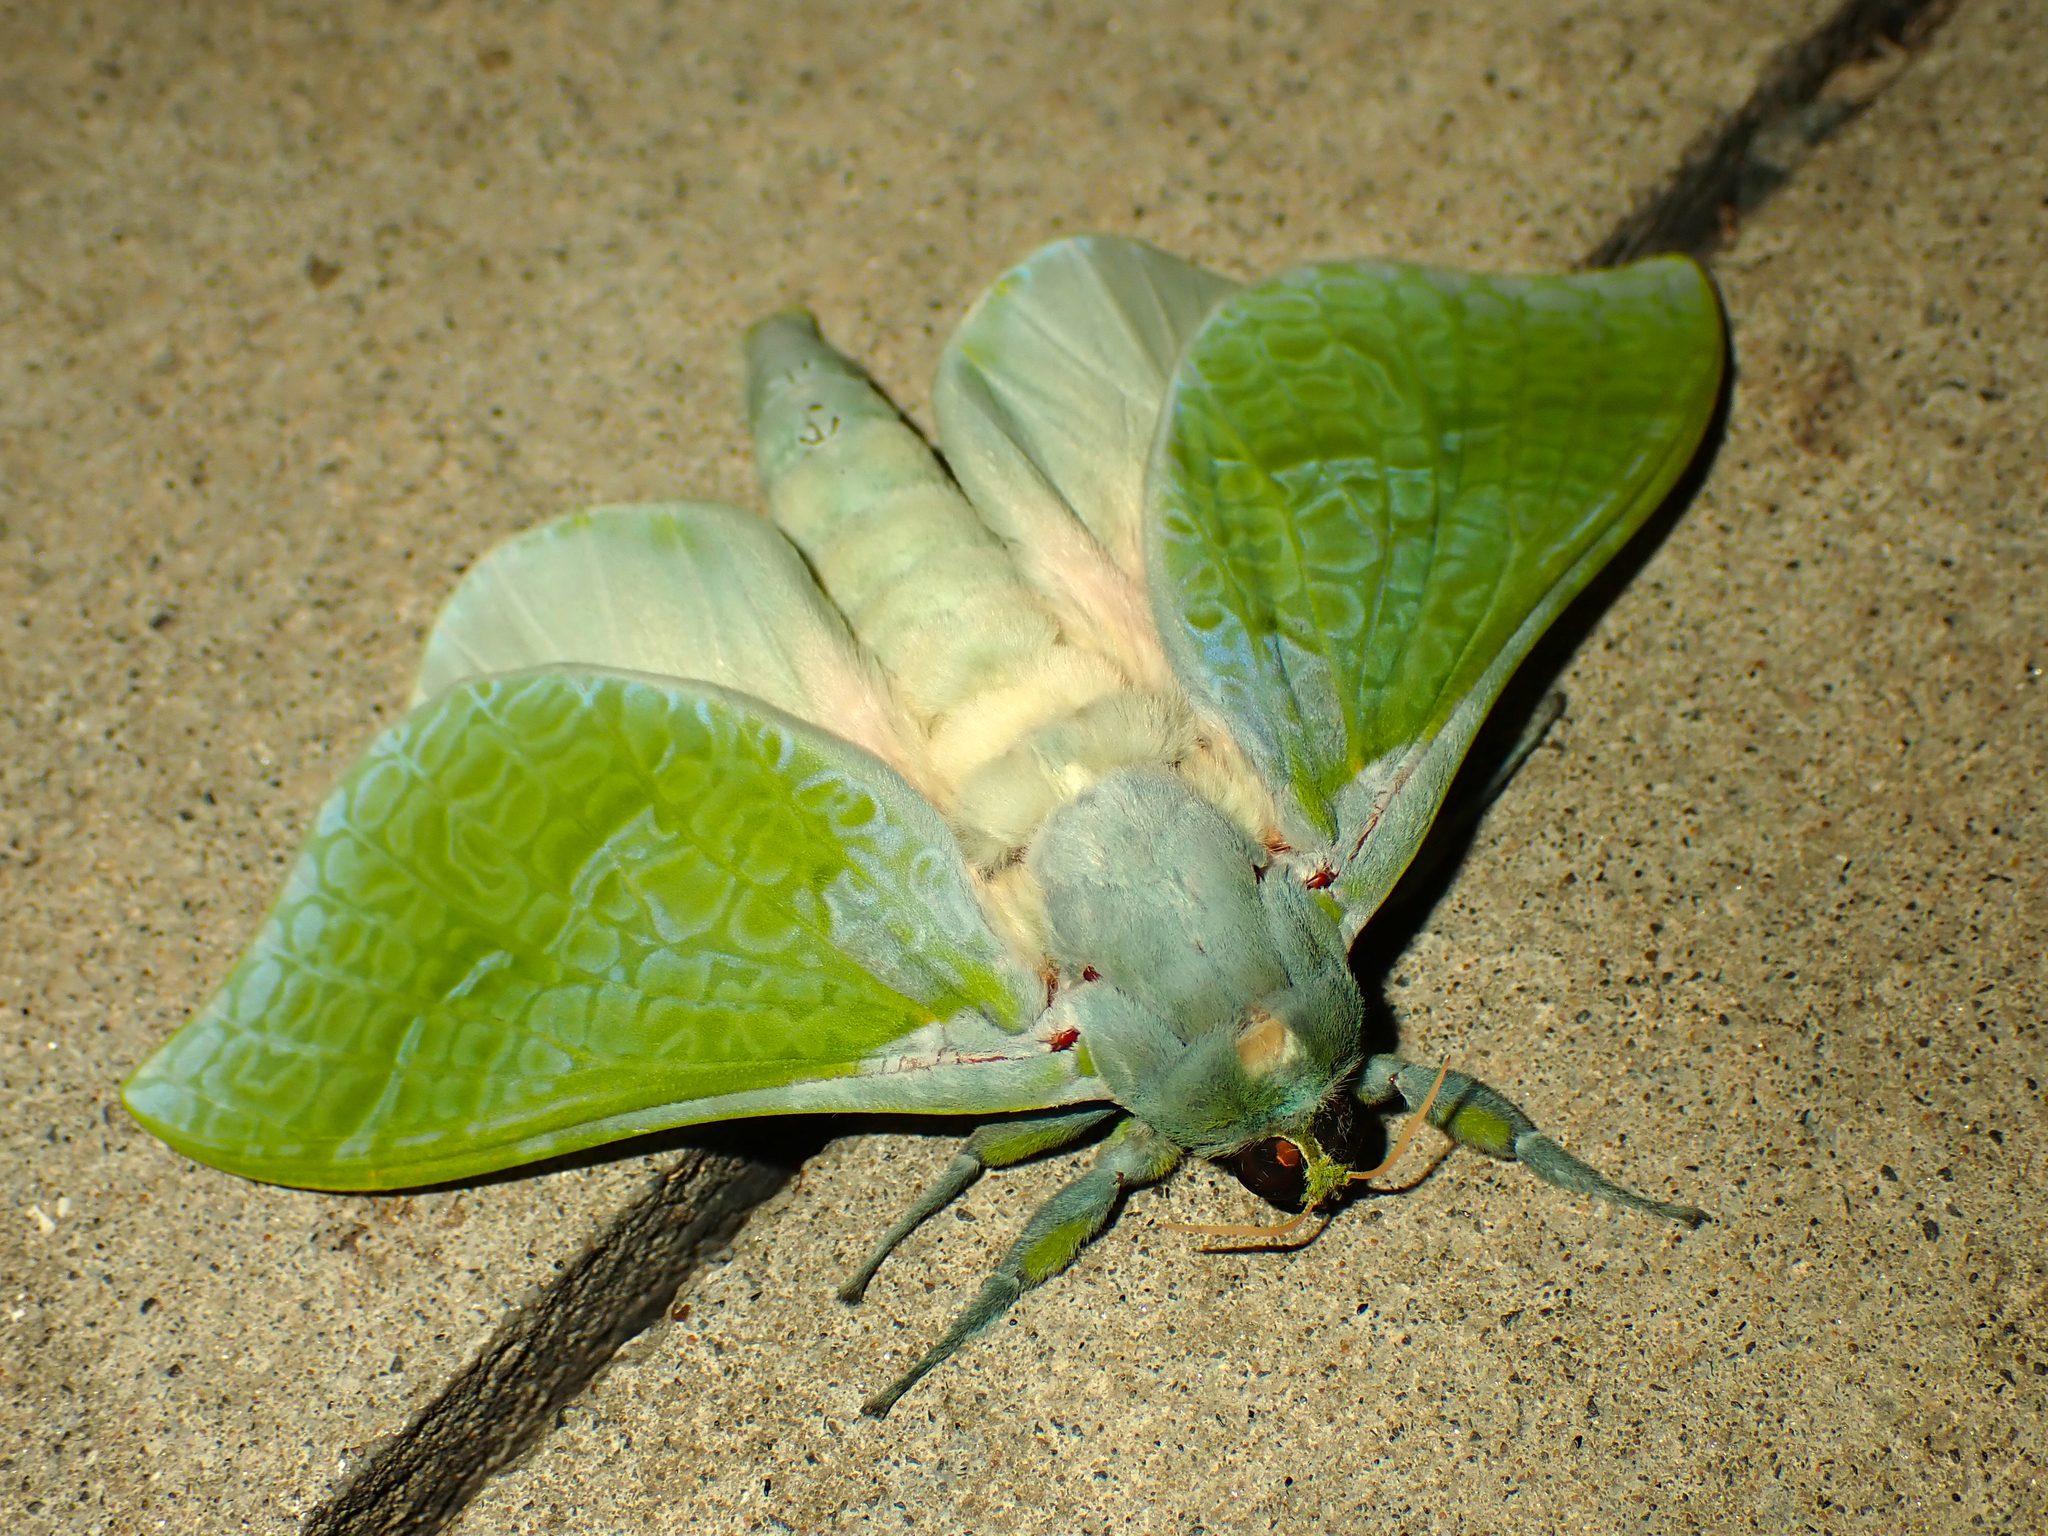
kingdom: Animalia
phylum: Arthropoda
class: Insecta
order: Lepidoptera
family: Hepialidae
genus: Aenetus
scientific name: Aenetus virescens
